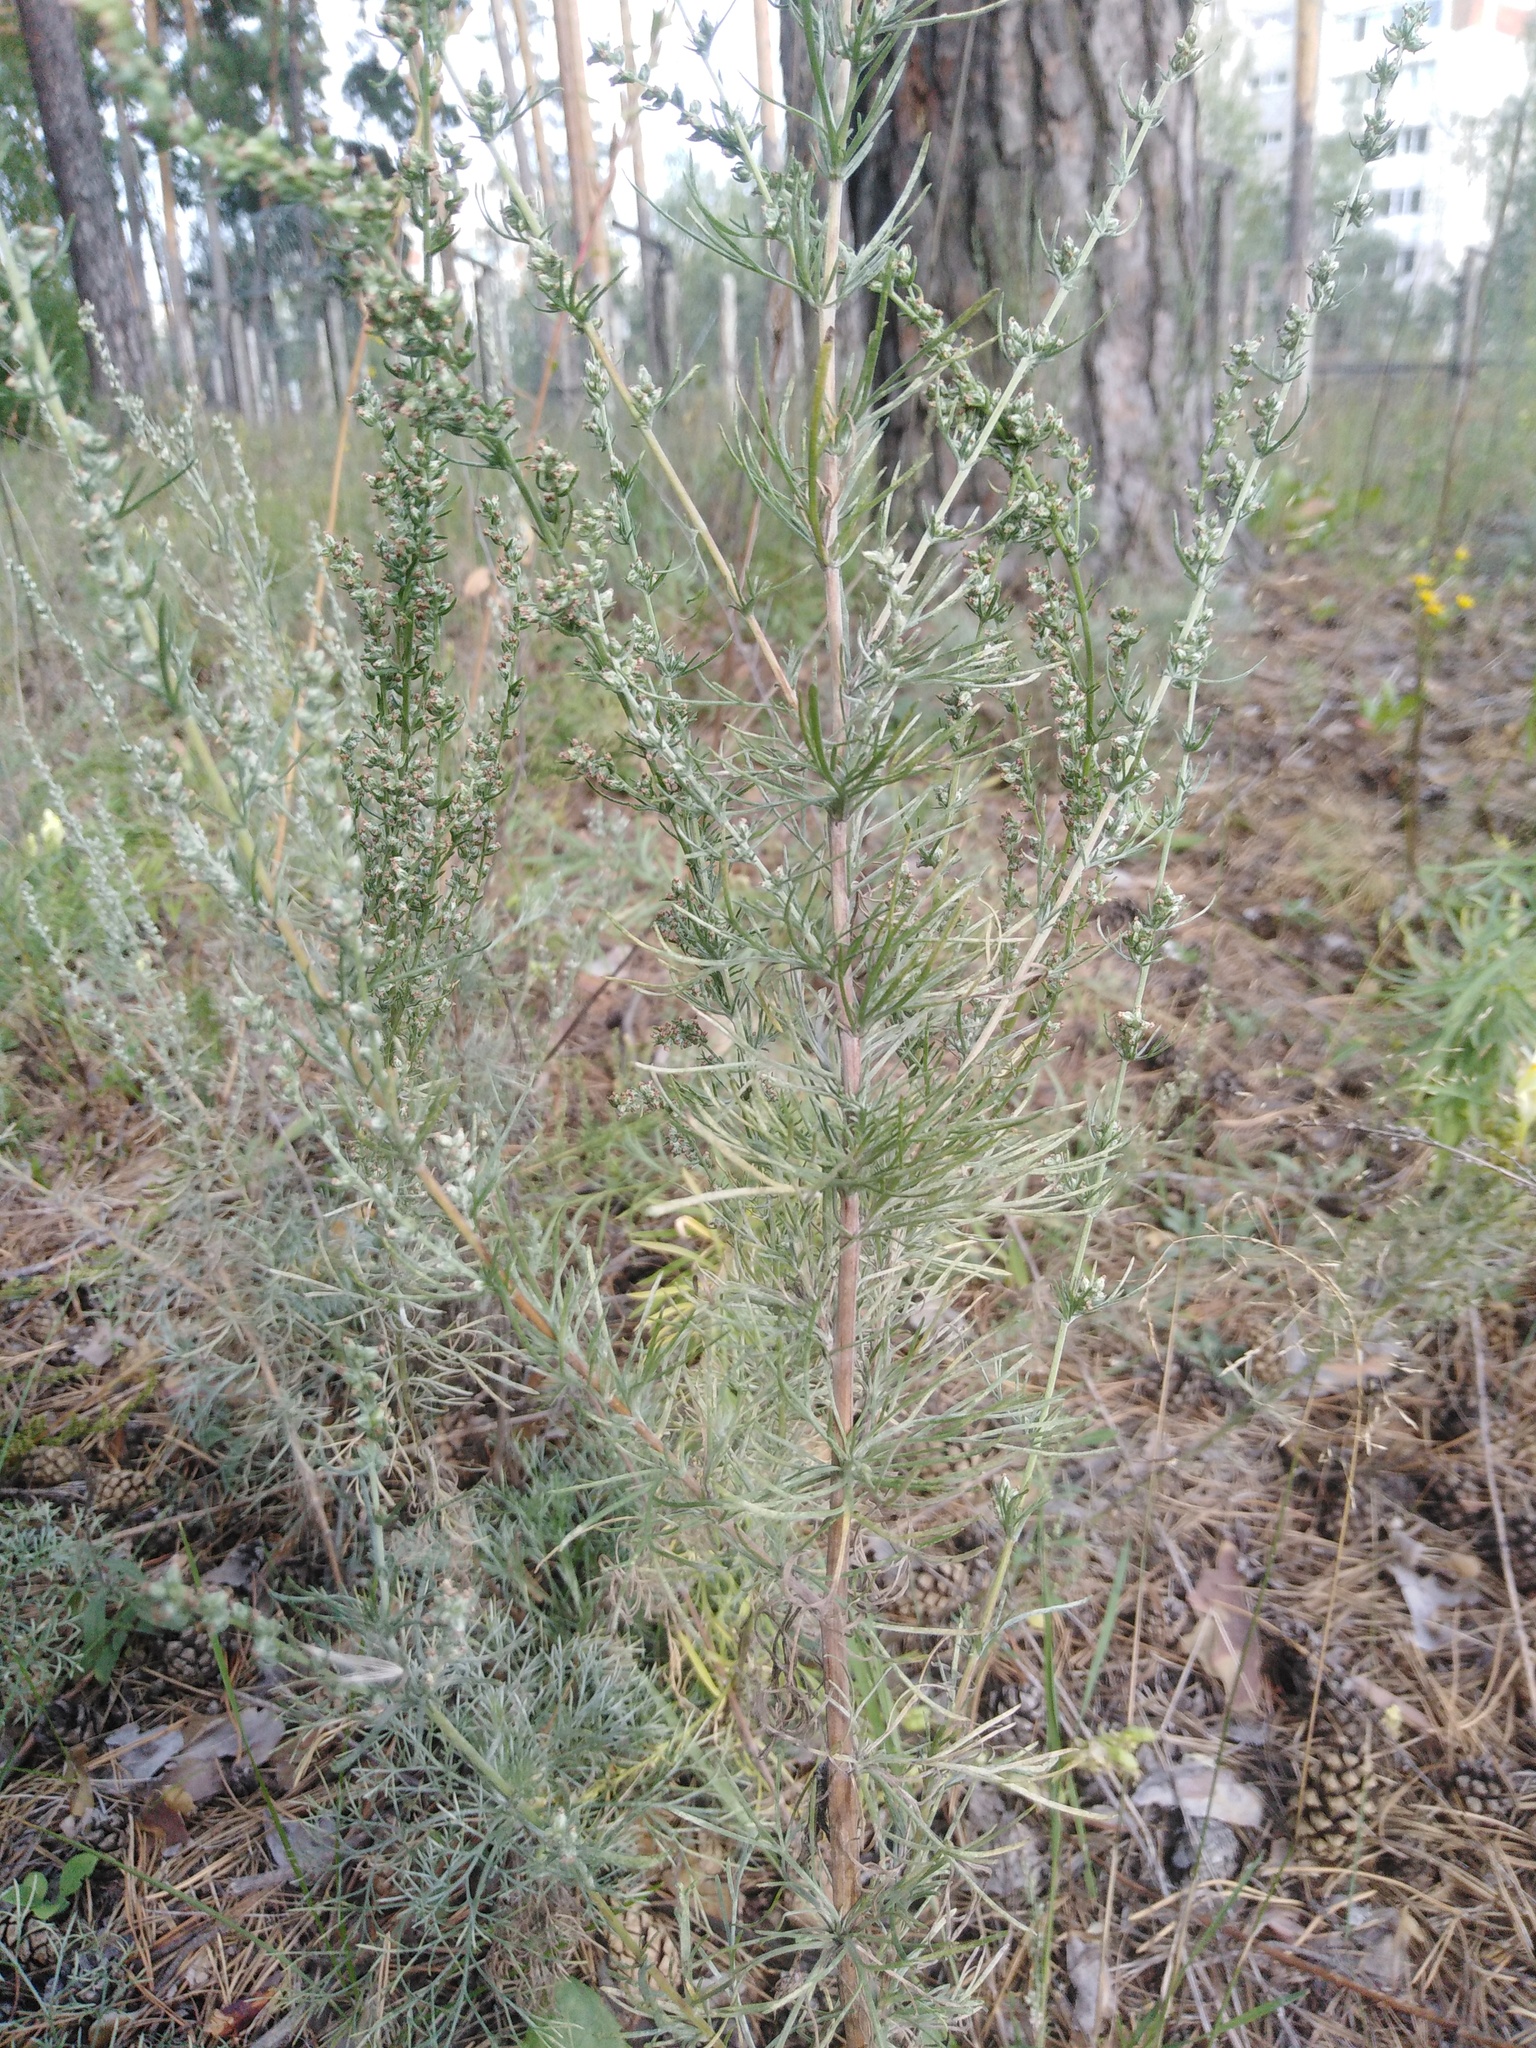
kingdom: Plantae
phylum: Tracheophyta
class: Magnoliopsida
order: Asterales
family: Asteraceae
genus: Artemisia
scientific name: Artemisia campestris
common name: Field wormwood
